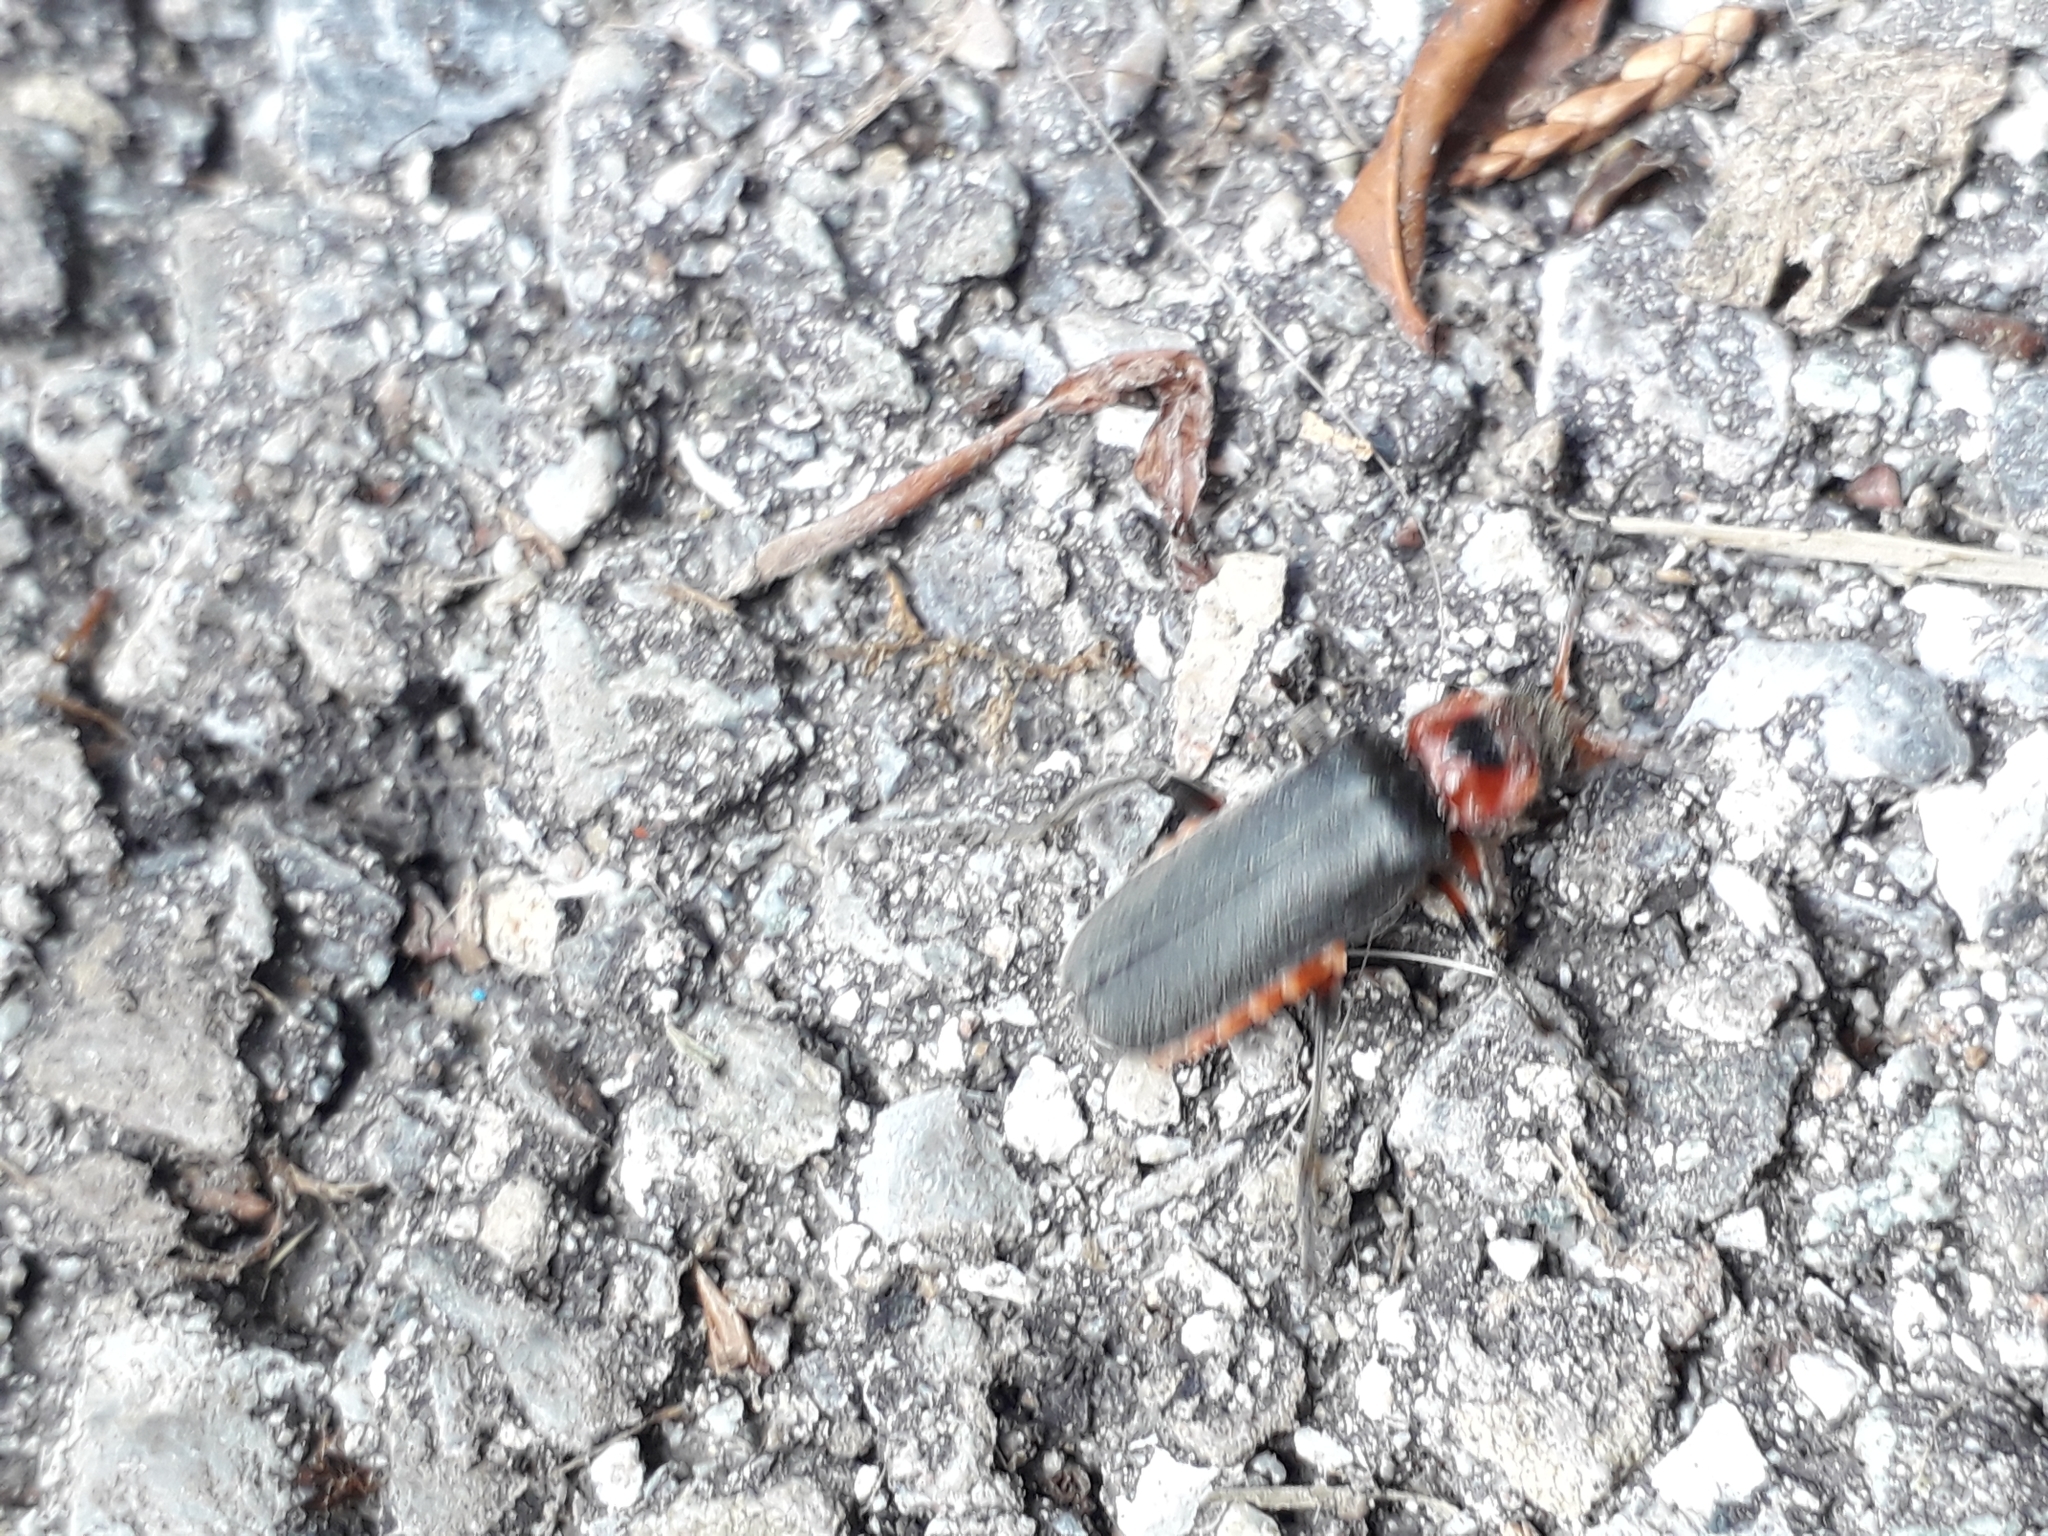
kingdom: Animalia
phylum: Arthropoda
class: Insecta
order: Coleoptera
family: Cantharidae
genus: Cantharis
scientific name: Cantharis rustica
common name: Soldier beetle
